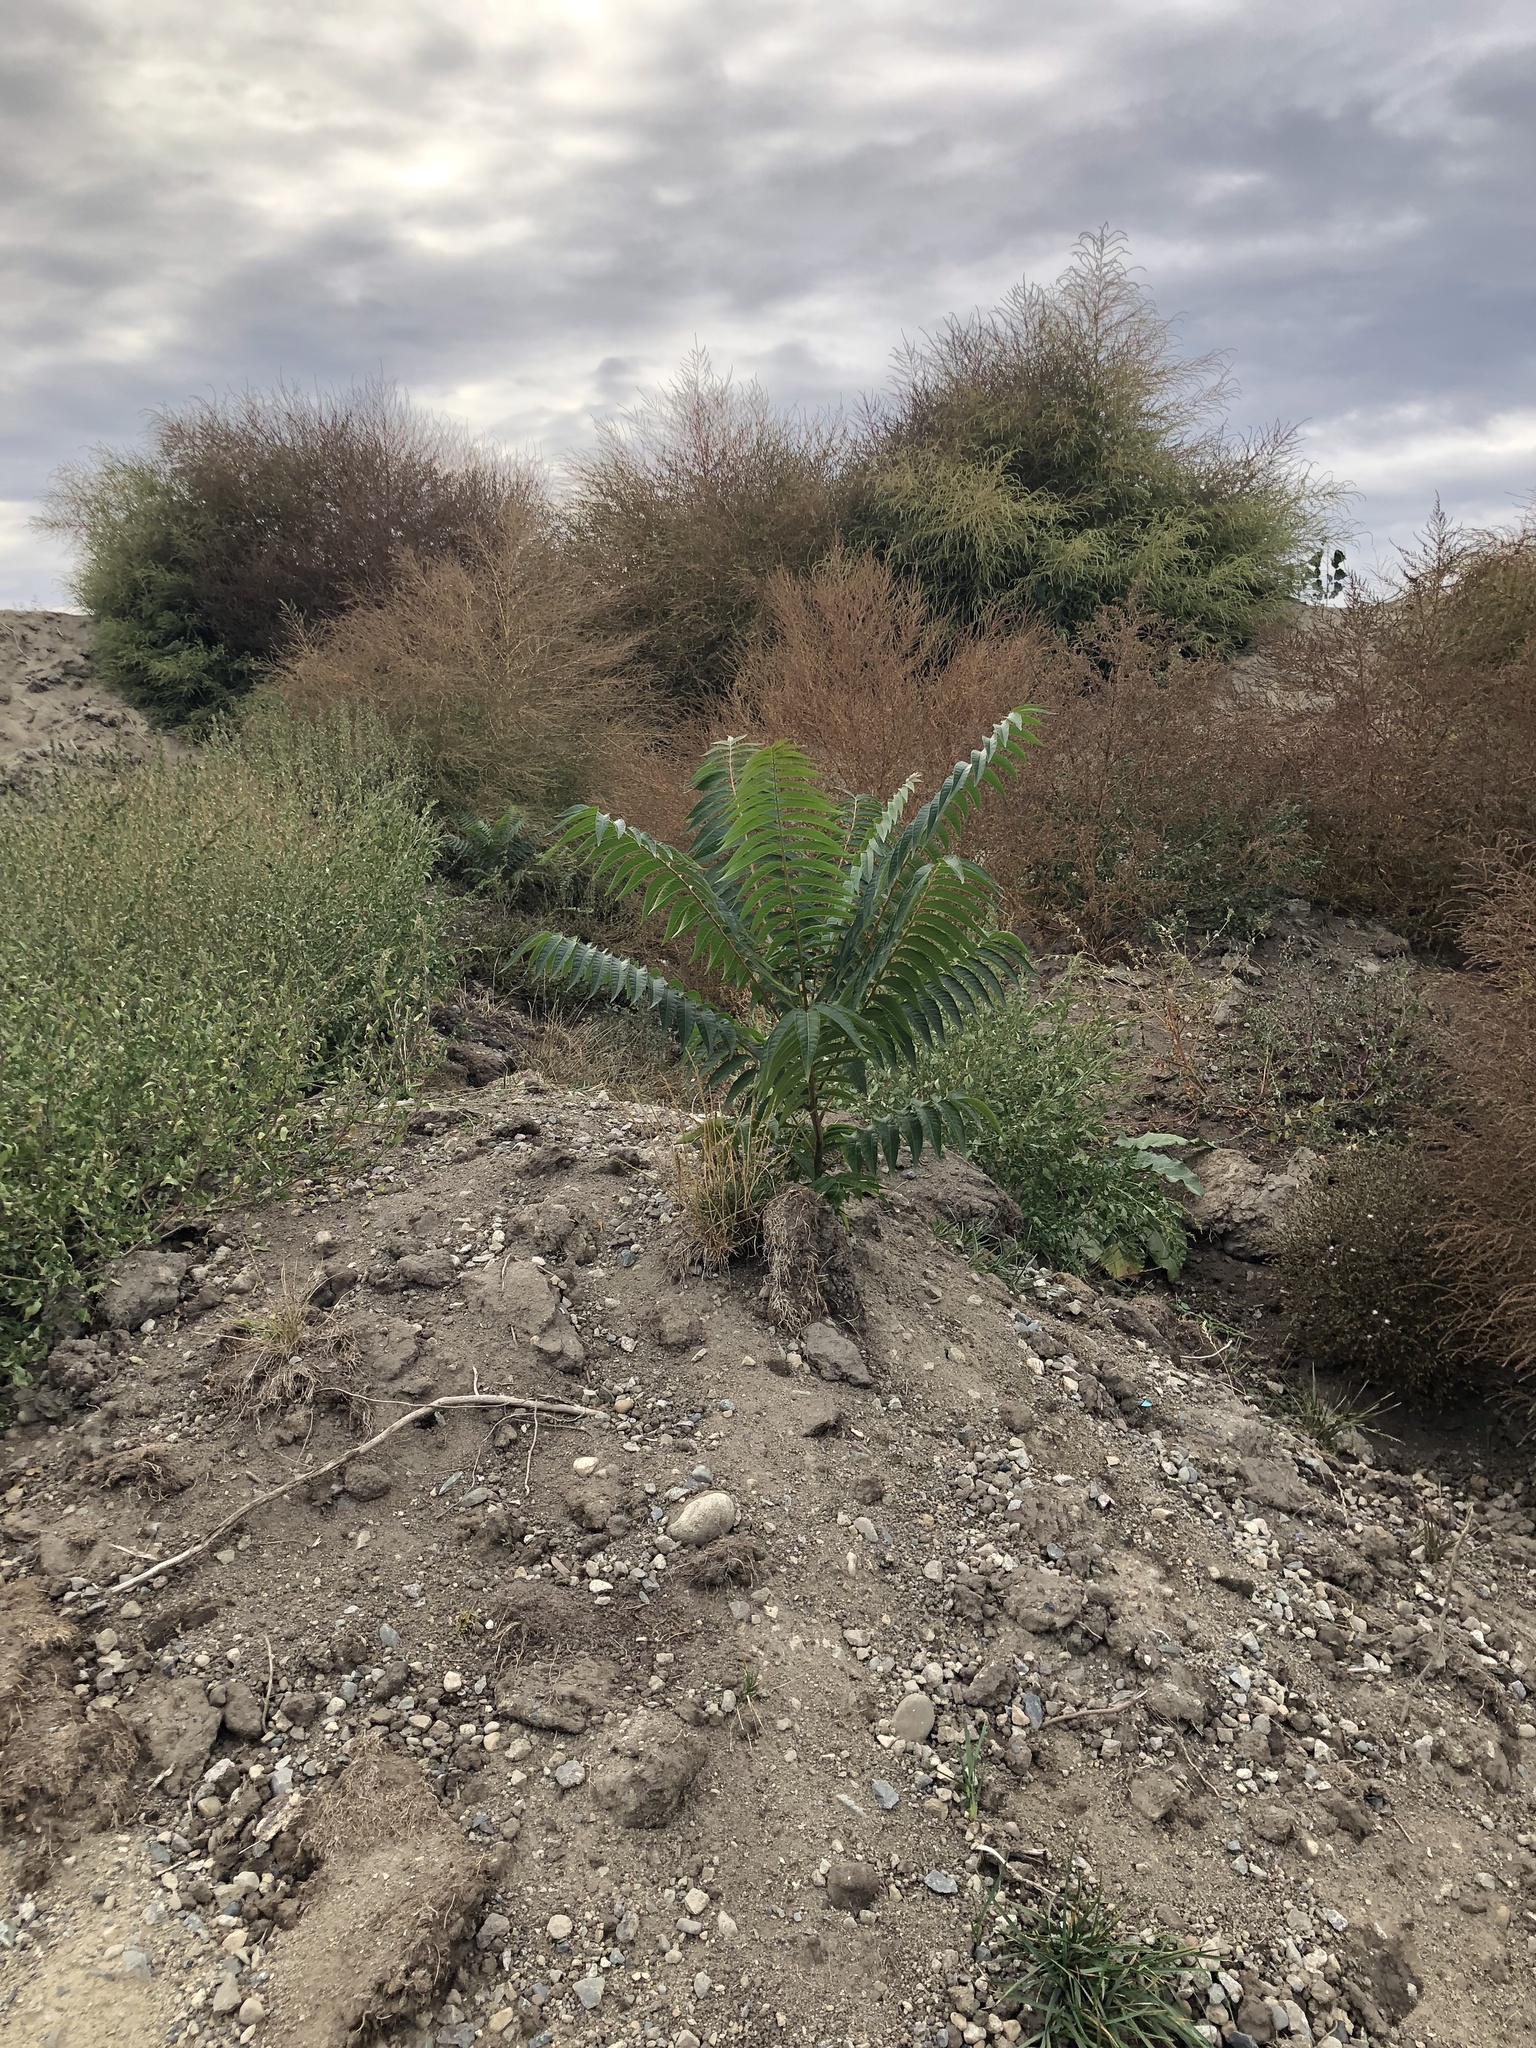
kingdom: Plantae
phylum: Tracheophyta
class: Magnoliopsida
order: Sapindales
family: Simaroubaceae
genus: Ailanthus
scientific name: Ailanthus altissima
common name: Tree-of-heaven
